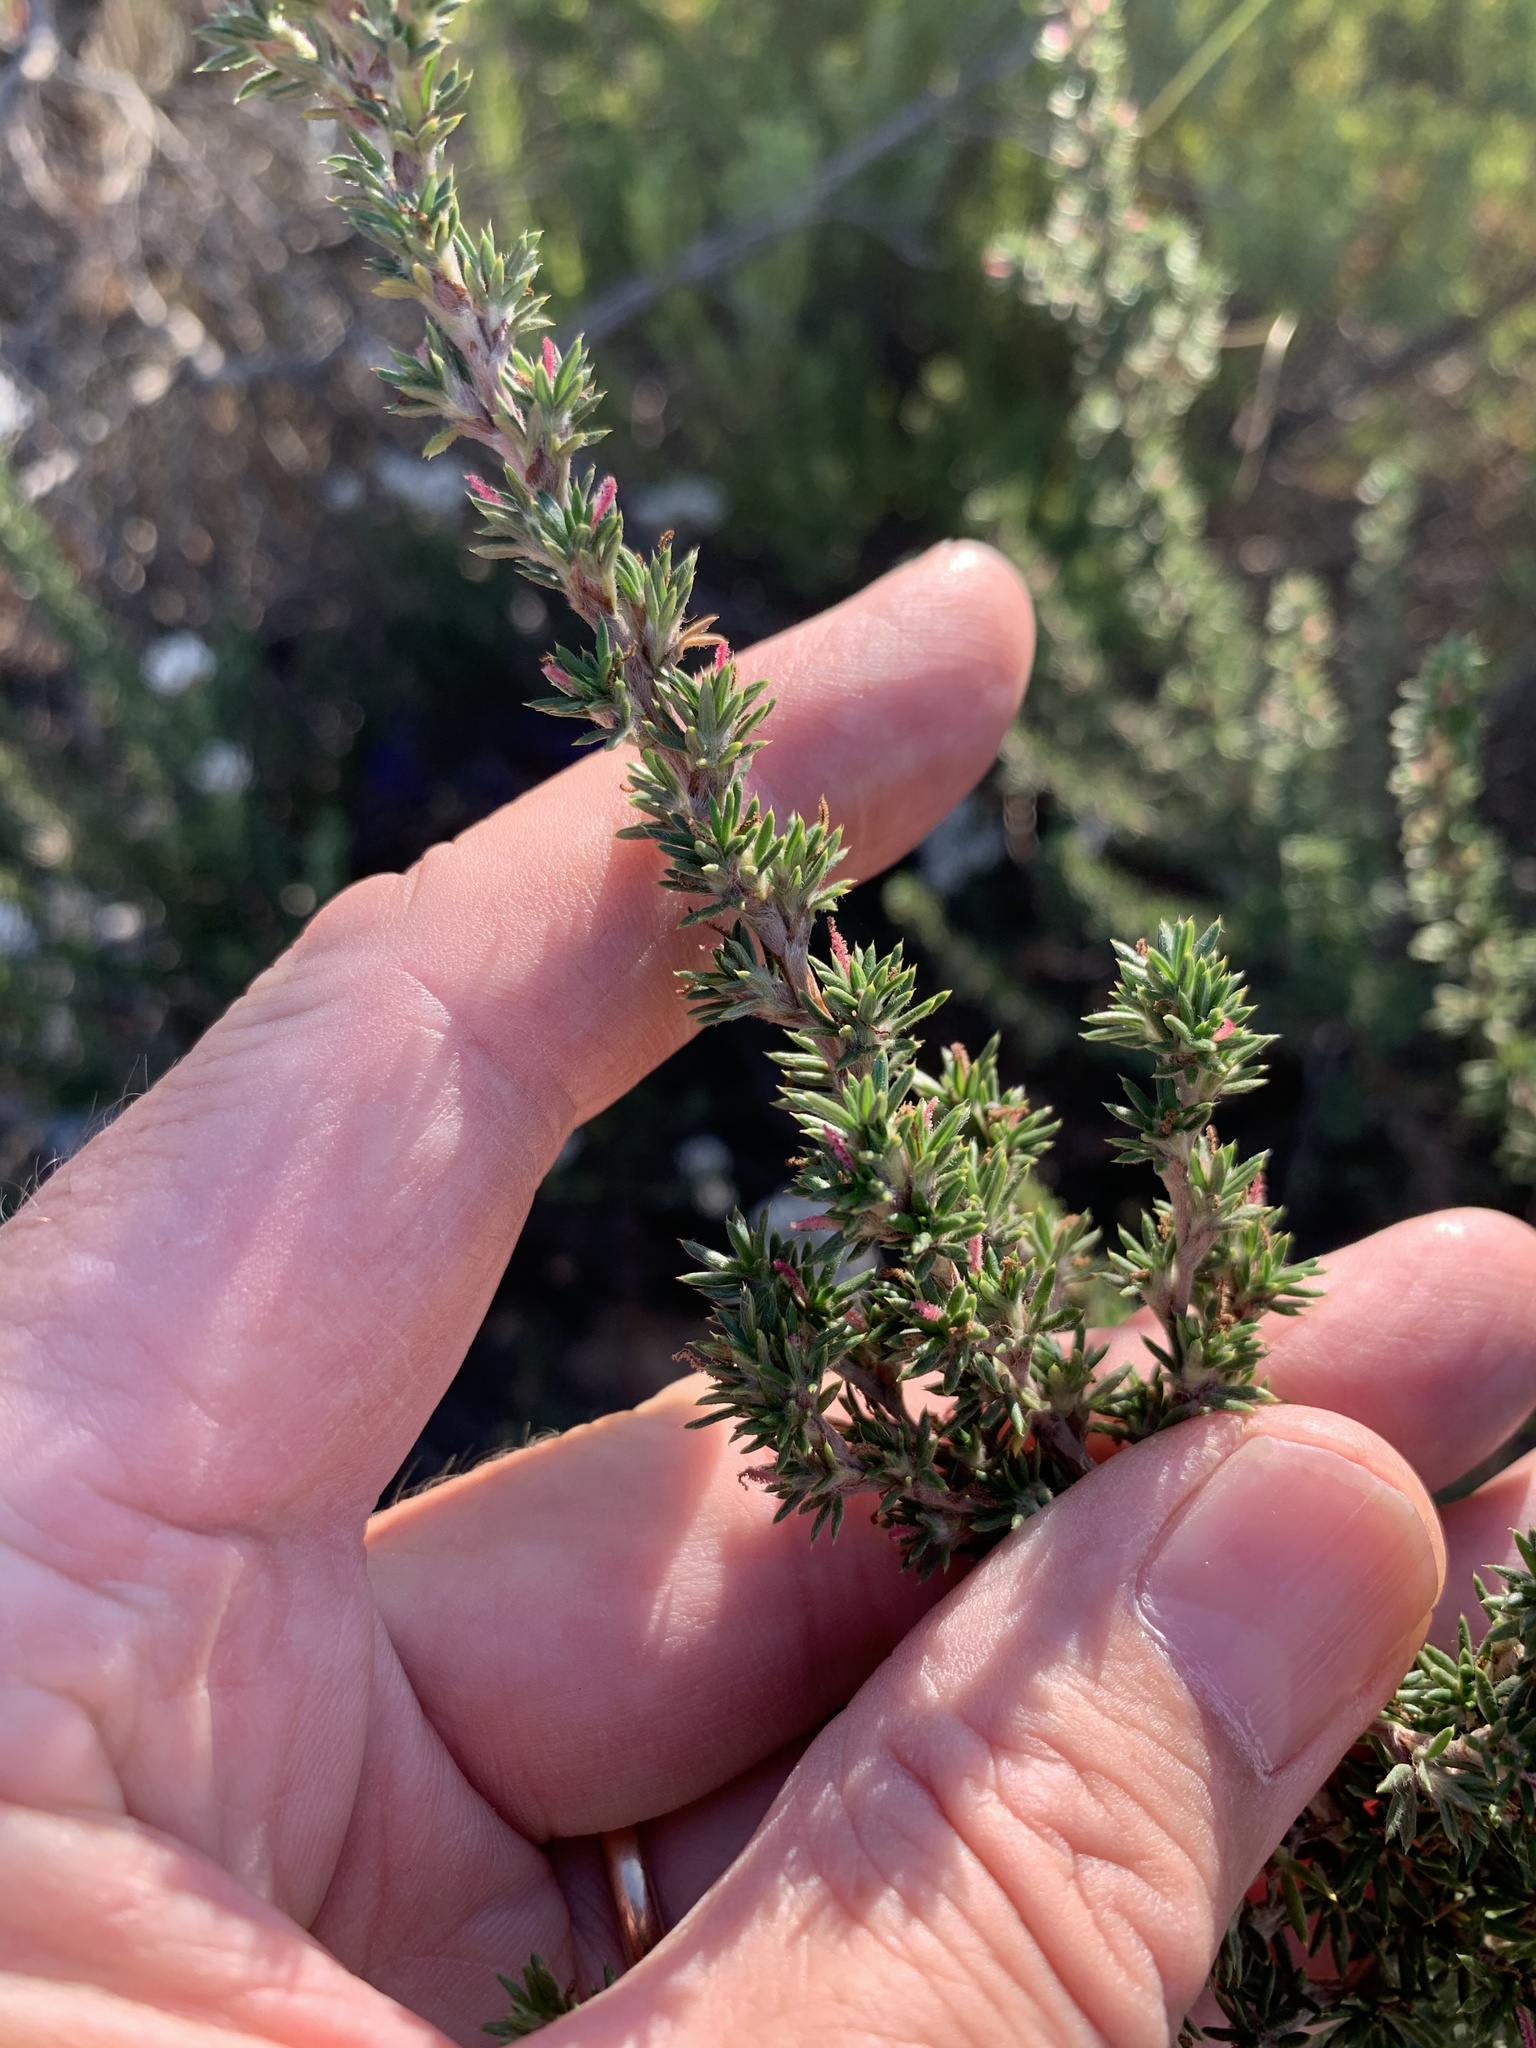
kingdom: Plantae
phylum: Tracheophyta
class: Magnoliopsida
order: Rosales
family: Rosaceae
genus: Cliffortia
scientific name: Cliffortia stricta
